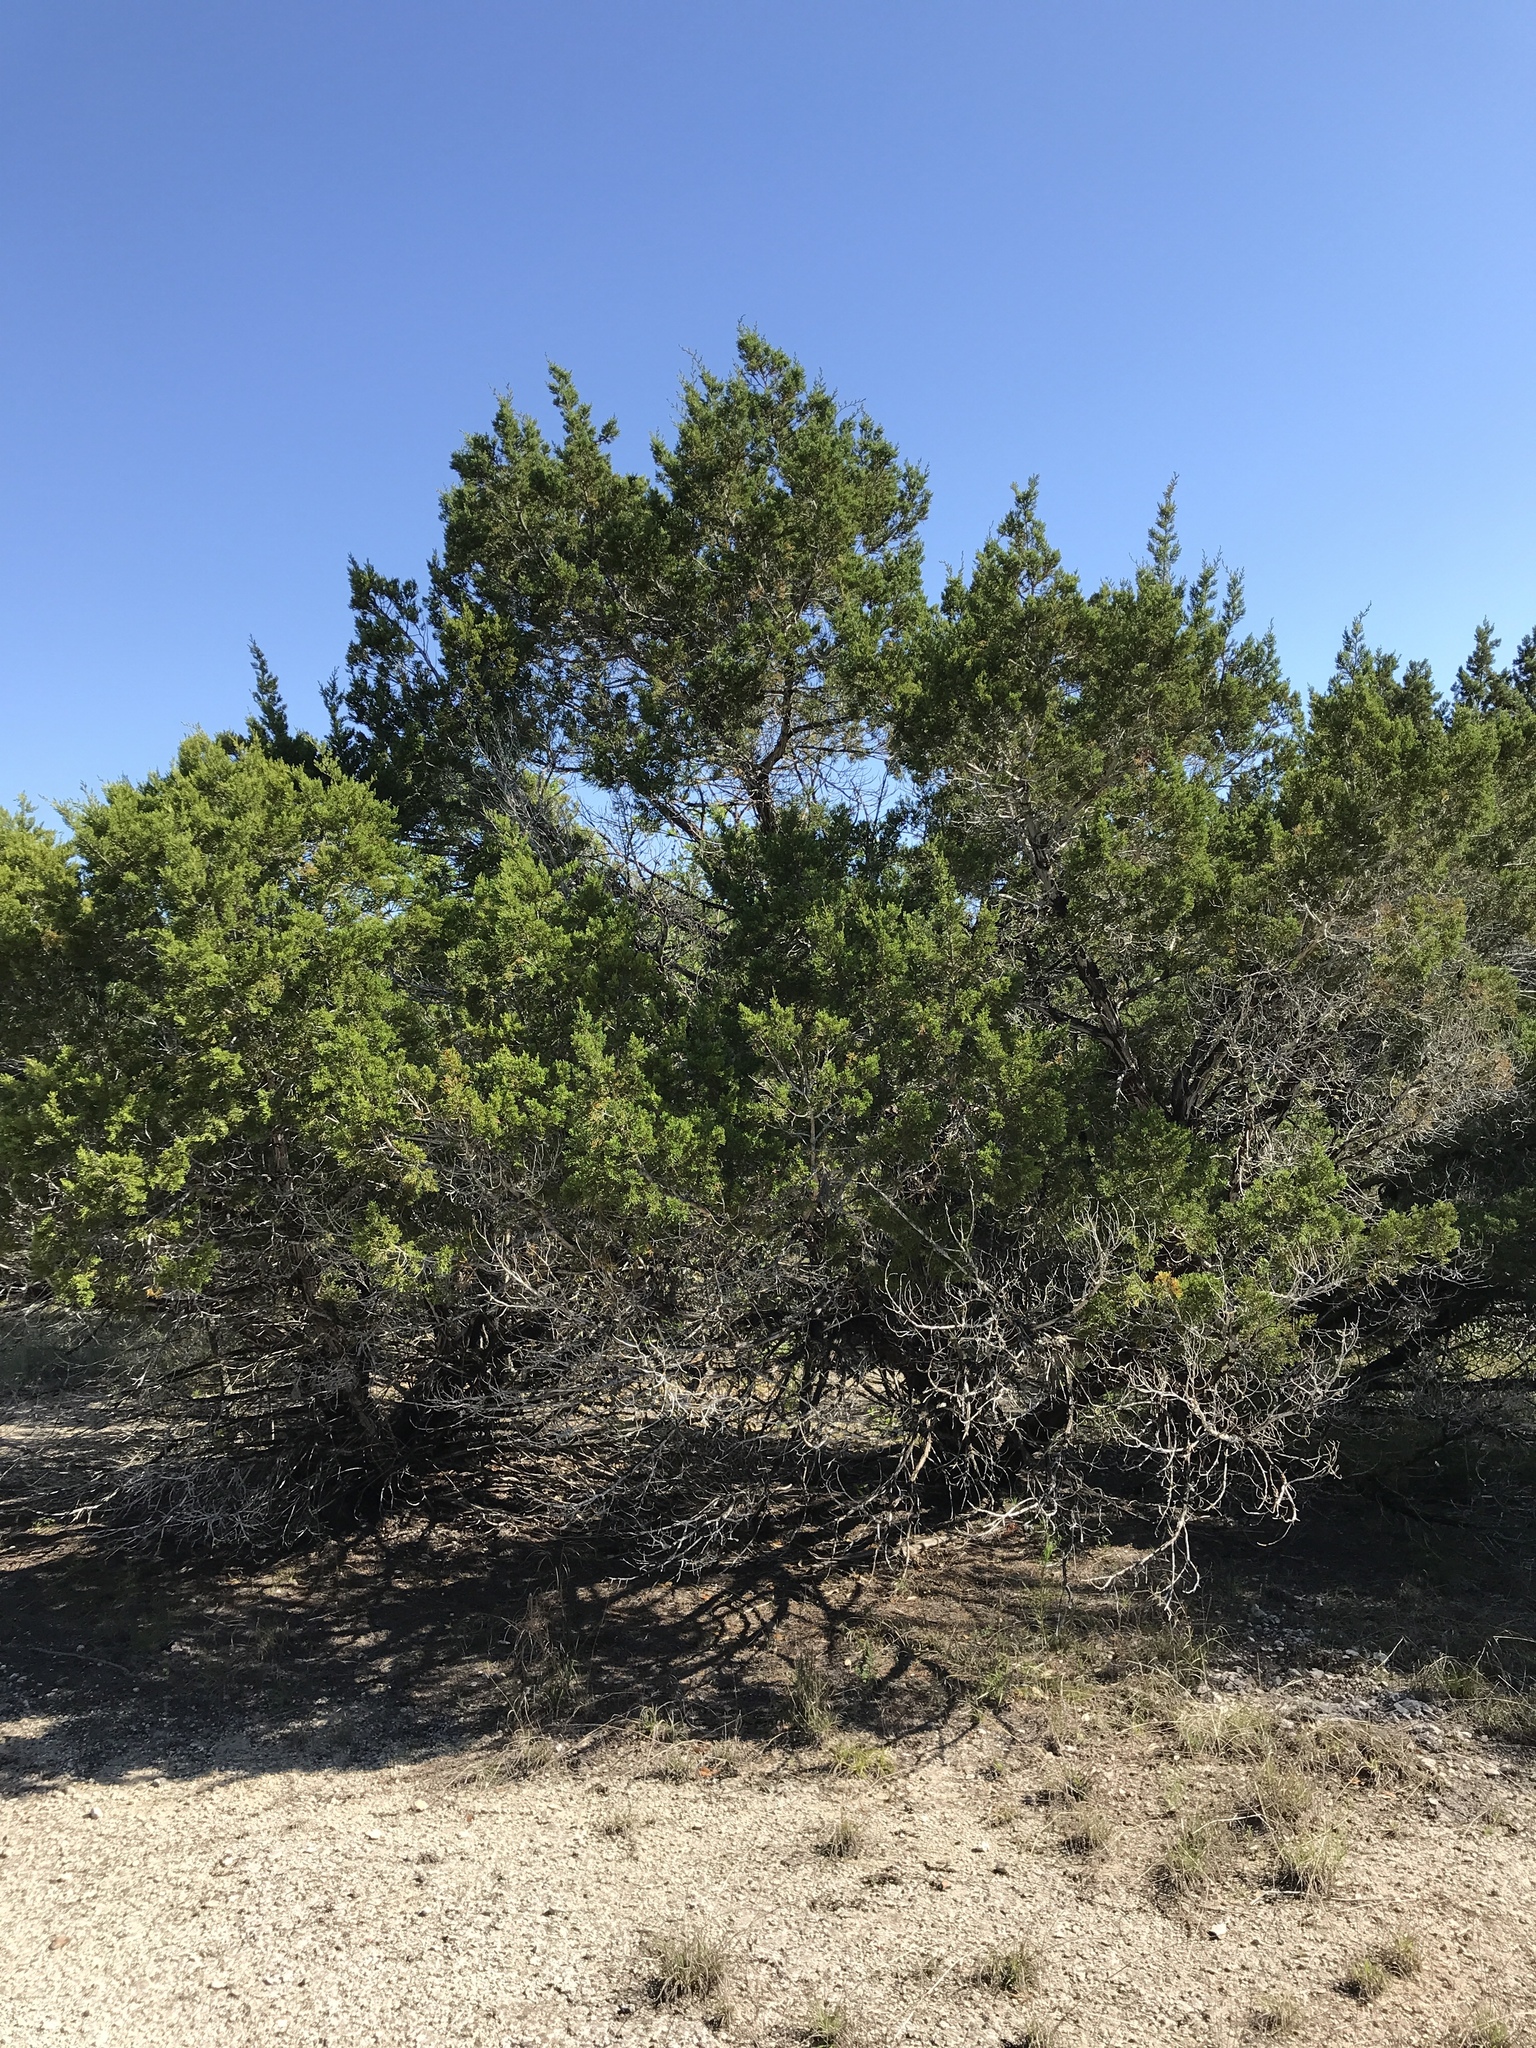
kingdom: Plantae
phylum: Tracheophyta
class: Pinopsida
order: Pinales
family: Cupressaceae
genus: Juniperus
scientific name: Juniperus ashei
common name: Mexican juniper
